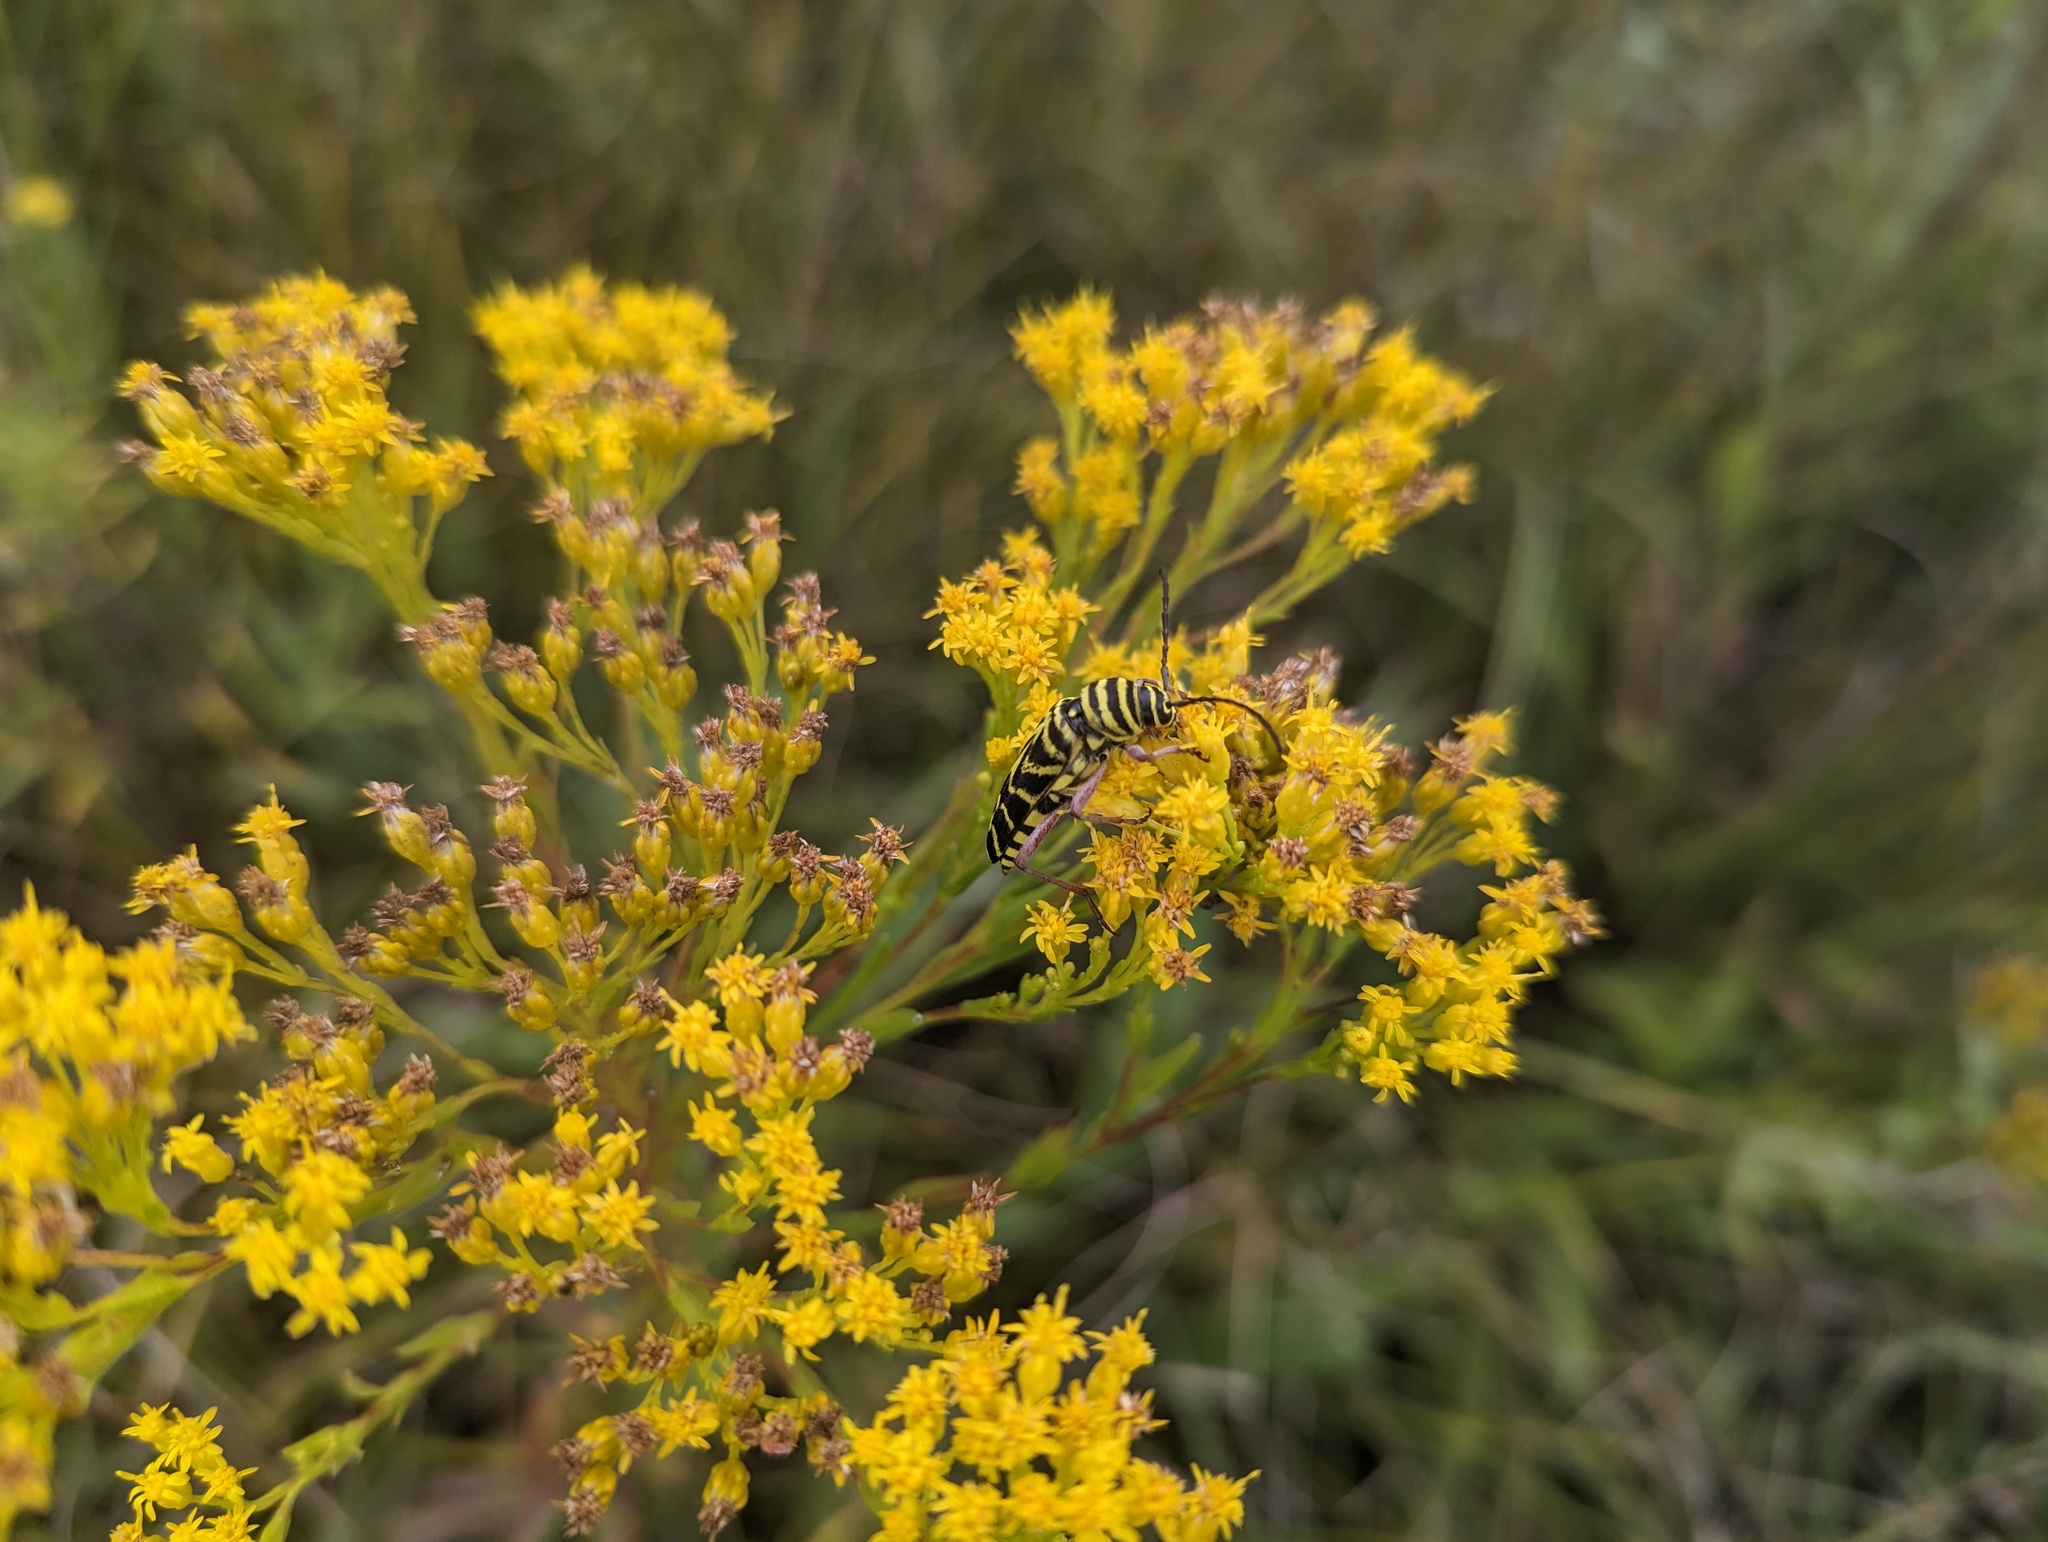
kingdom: Animalia
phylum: Arthropoda
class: Insecta
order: Coleoptera
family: Cerambycidae
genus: Megacyllene
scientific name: Megacyllene robiniae
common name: Locust borer
